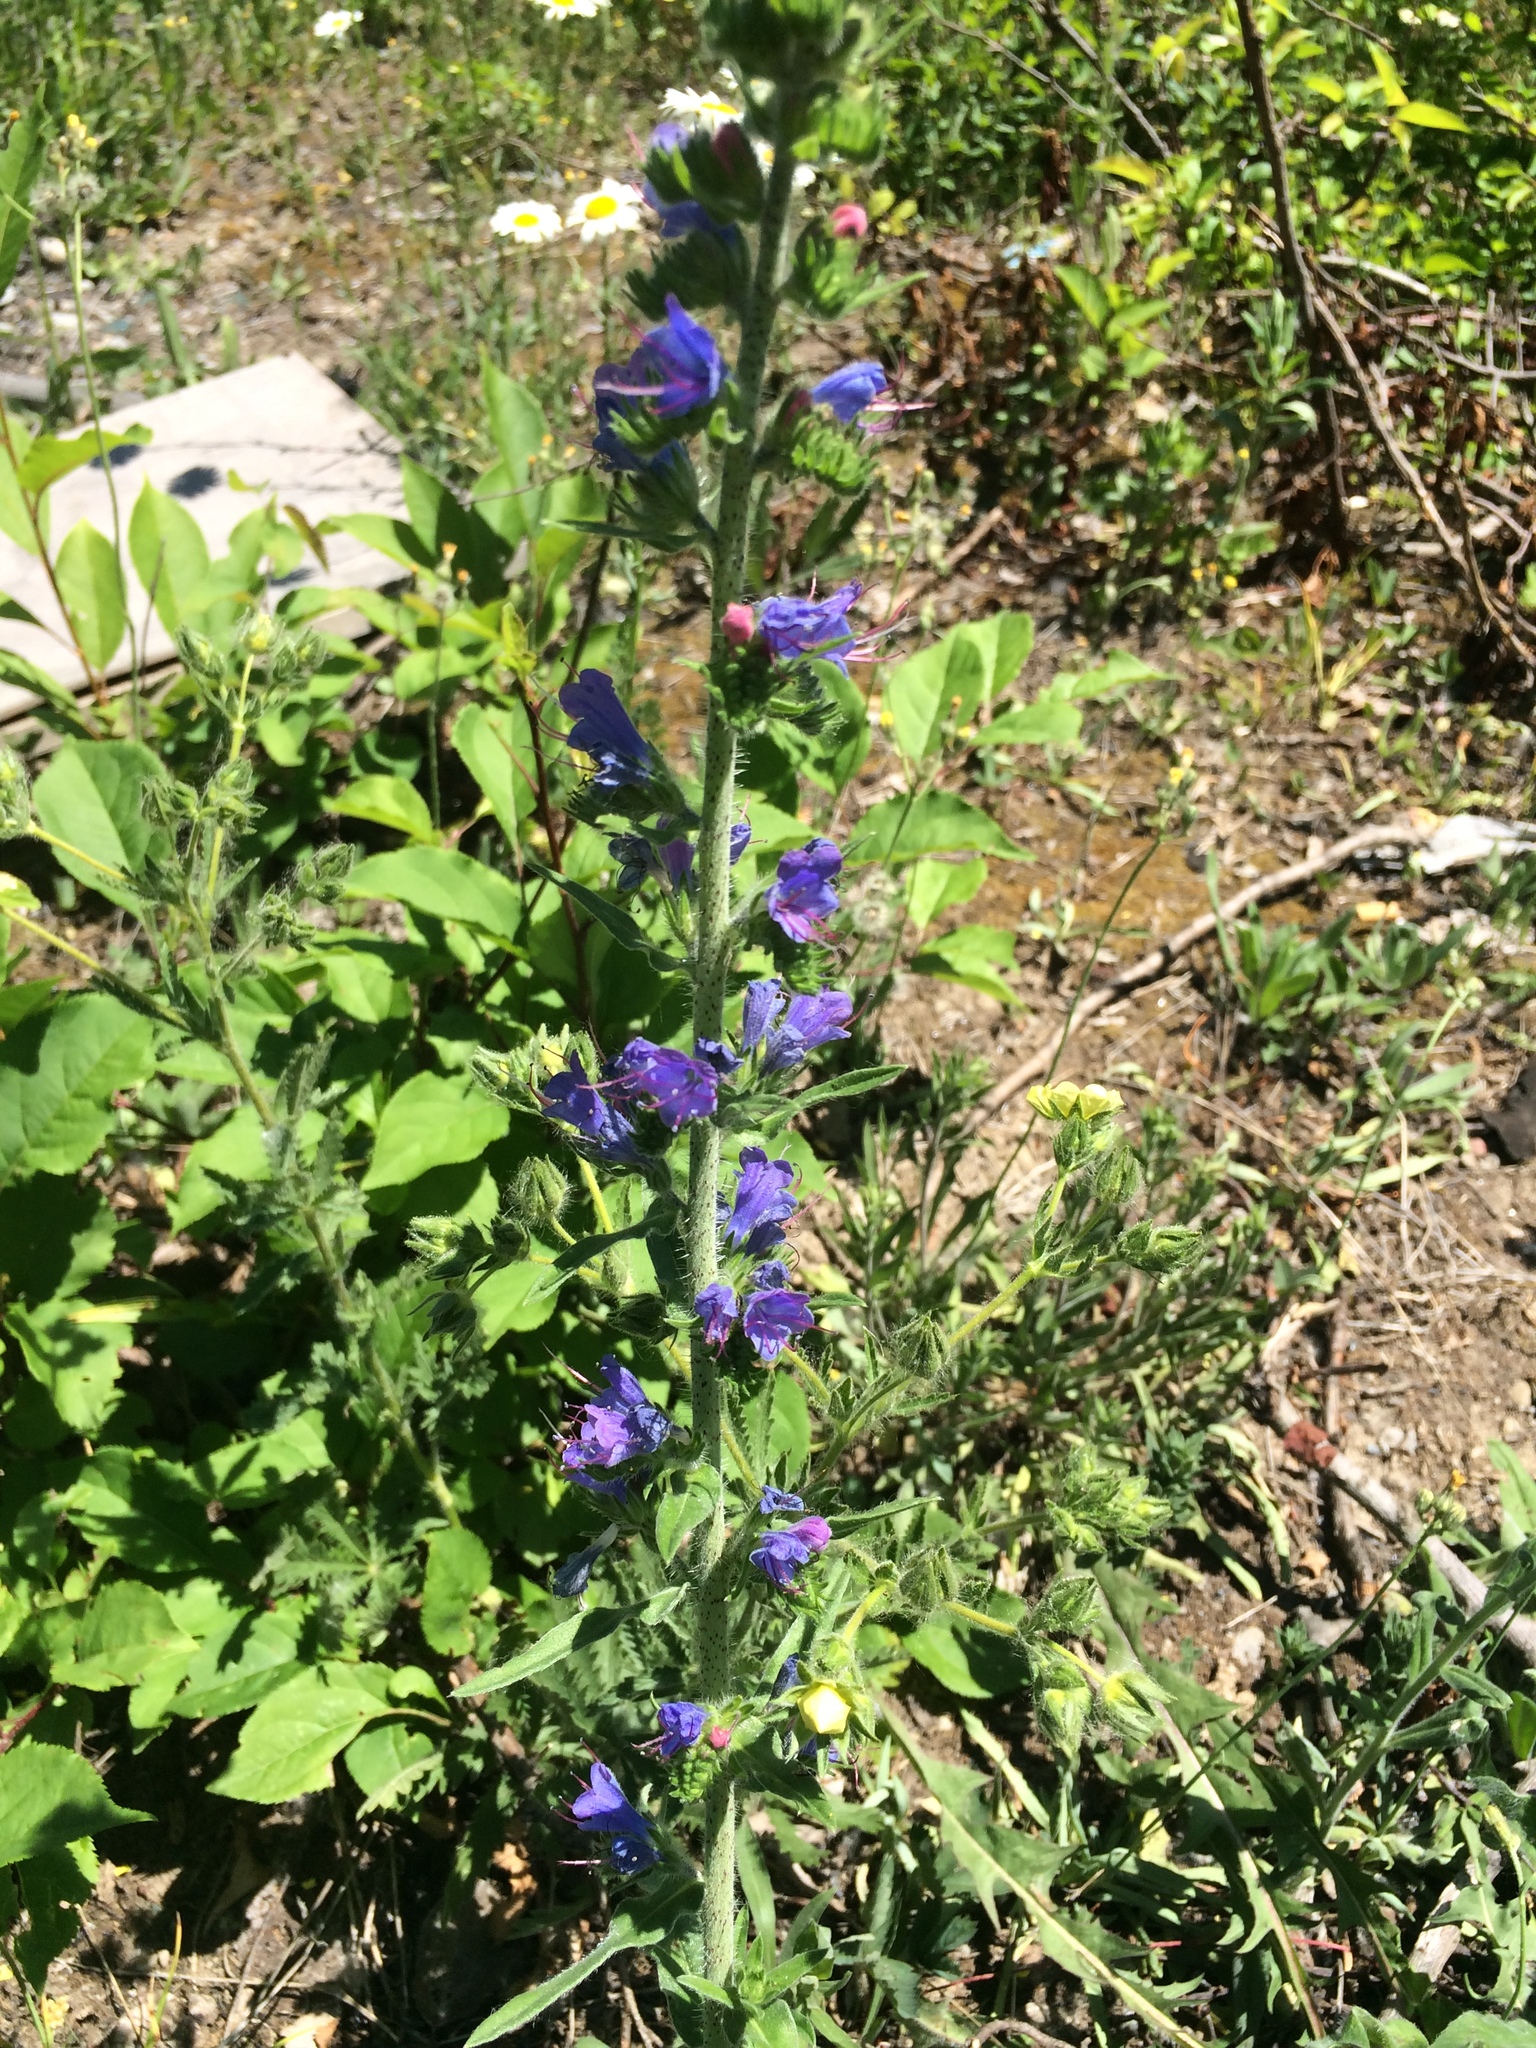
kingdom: Plantae
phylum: Tracheophyta
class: Magnoliopsida
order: Boraginales
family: Boraginaceae
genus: Echium
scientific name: Echium vulgare
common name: Common viper's bugloss
